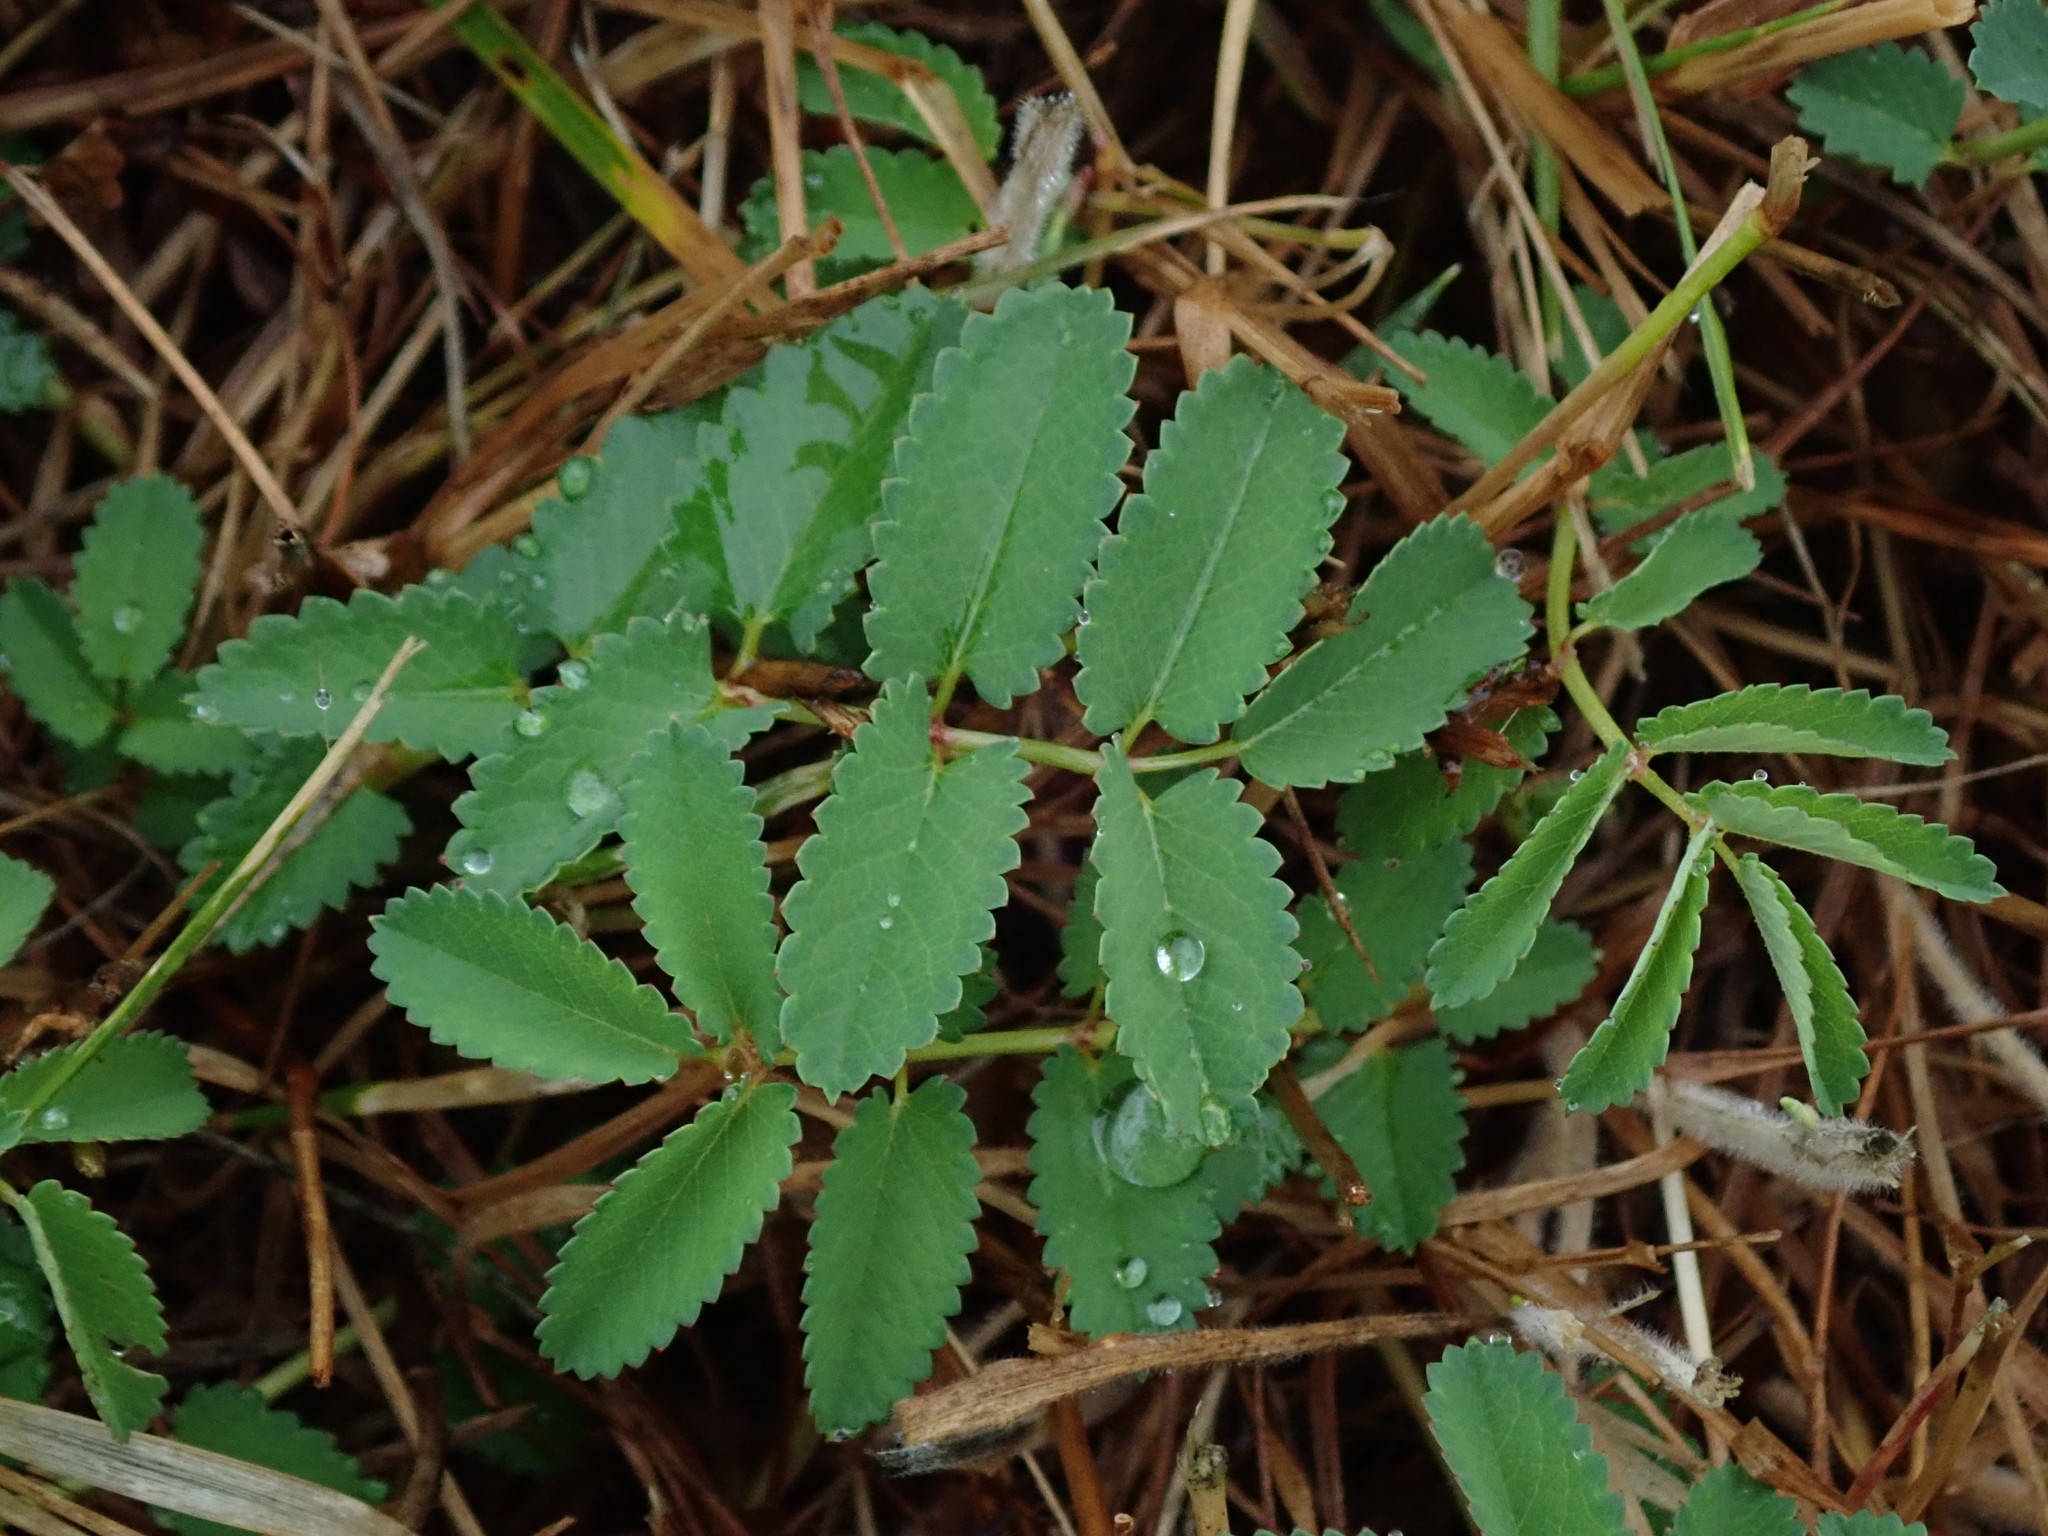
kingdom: Plantae
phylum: Tracheophyta
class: Magnoliopsida
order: Rosales
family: Rosaceae
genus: Sanguisorba
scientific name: Sanguisorba officinalis
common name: Great burnet
